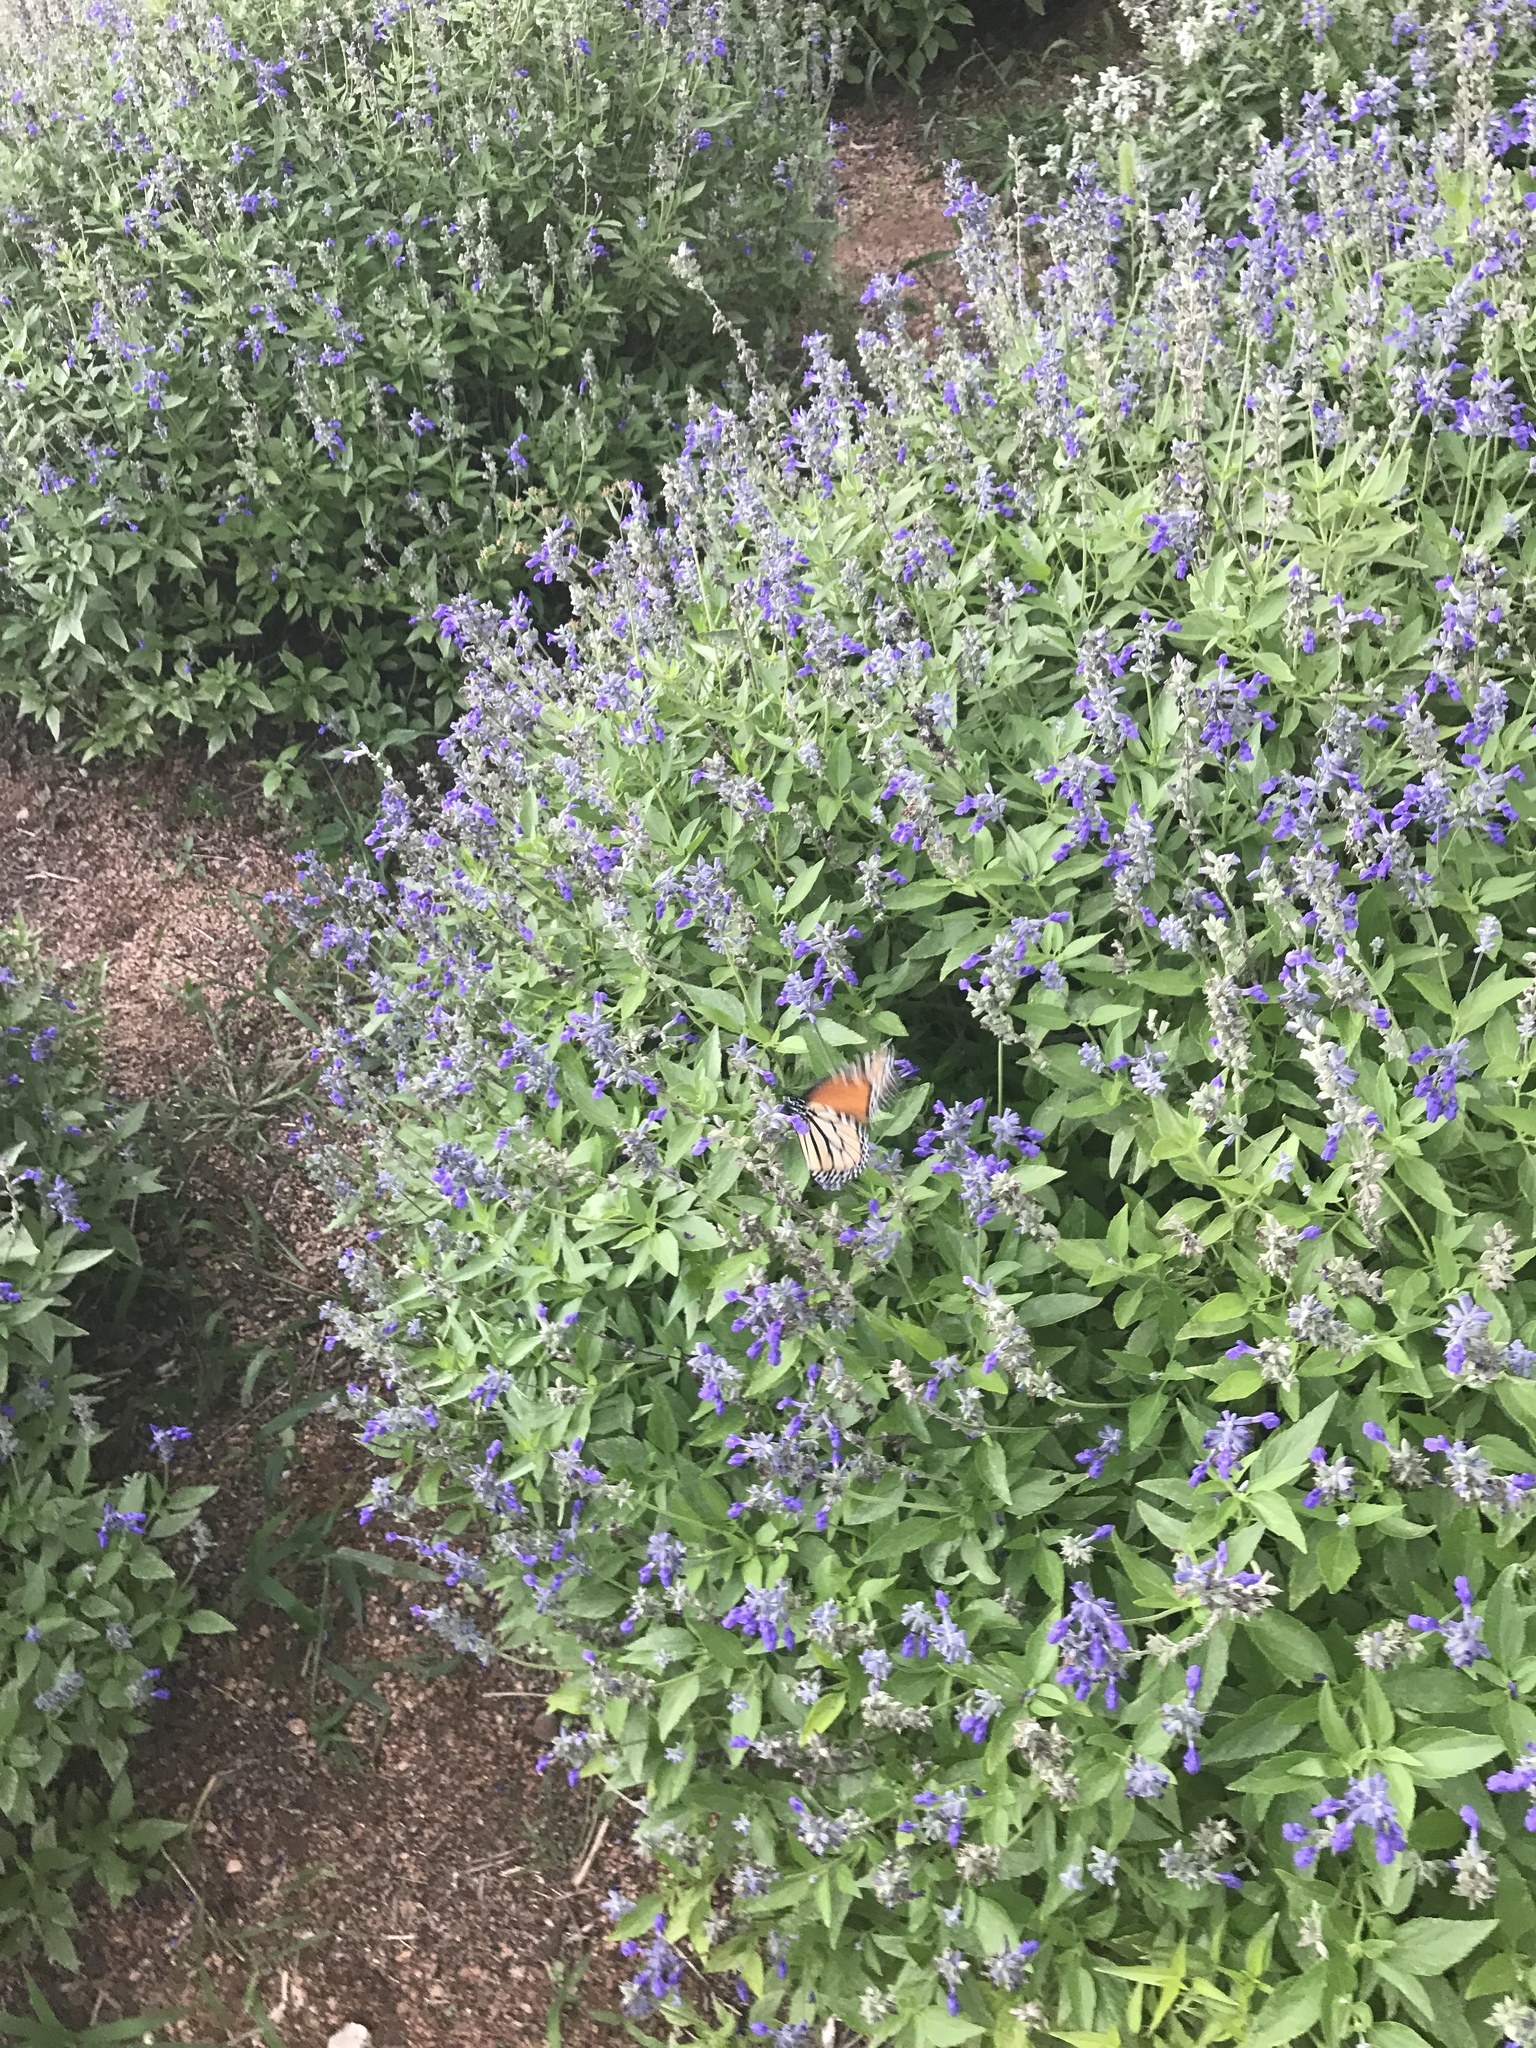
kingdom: Animalia
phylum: Arthropoda
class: Insecta
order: Lepidoptera
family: Nymphalidae
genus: Danaus
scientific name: Danaus plexippus
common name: Monarch
